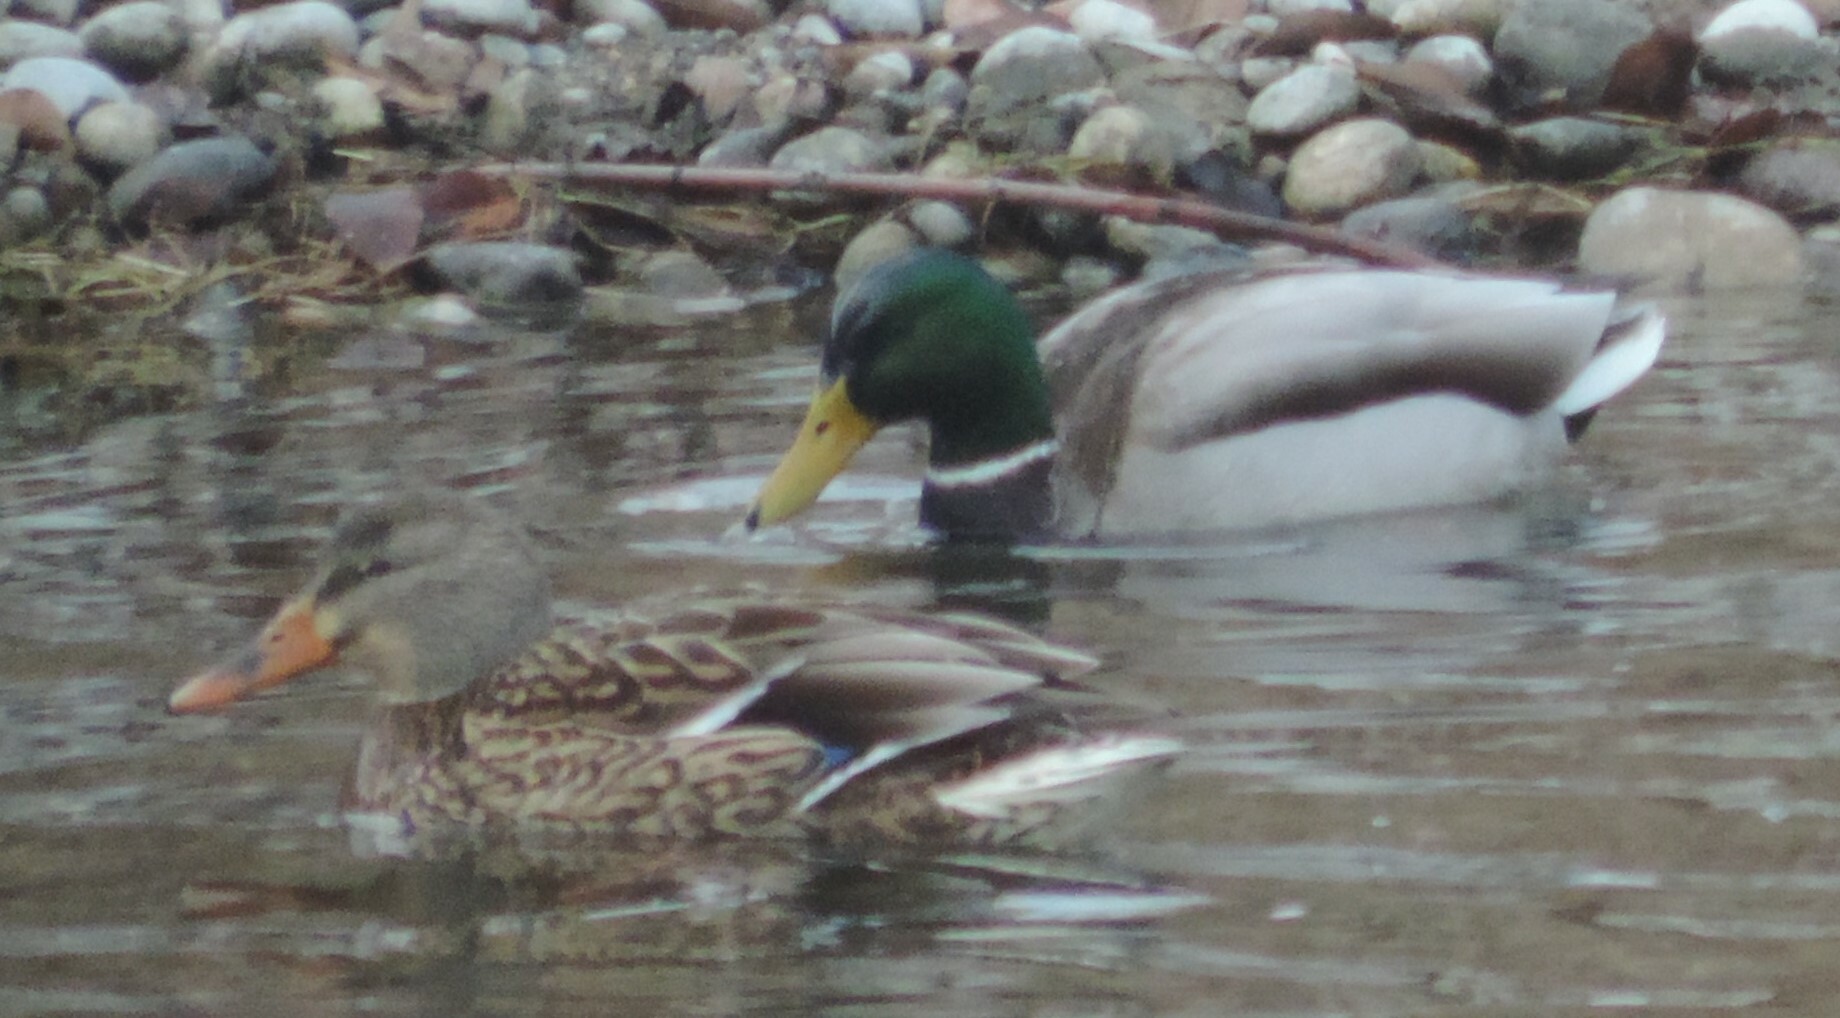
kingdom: Animalia
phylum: Chordata
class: Aves
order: Anseriformes
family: Anatidae
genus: Anas
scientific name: Anas platyrhynchos
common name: Mallard
